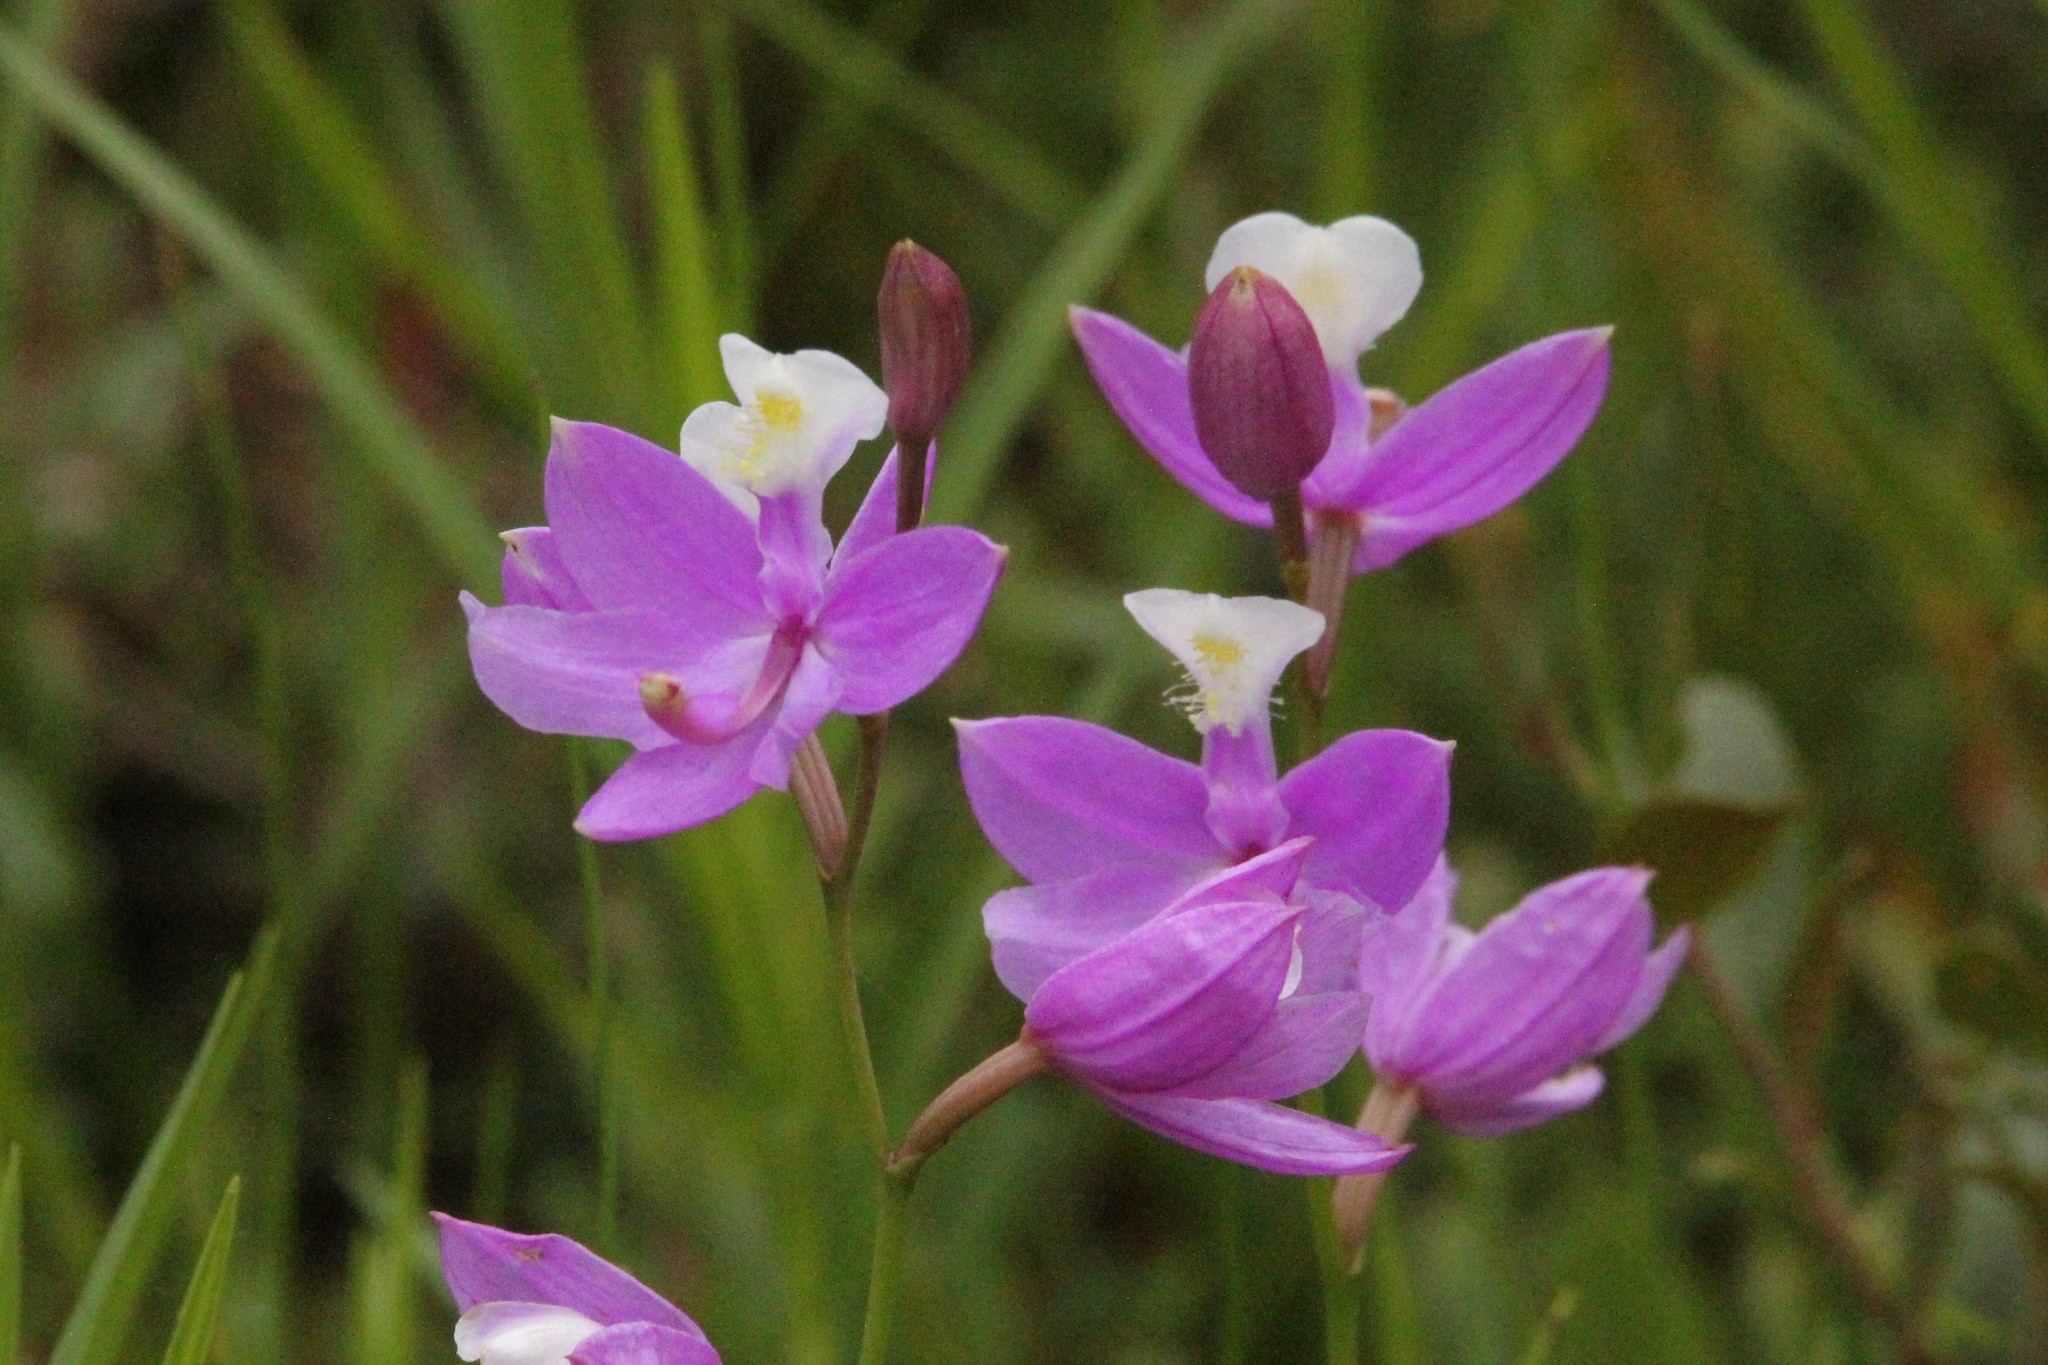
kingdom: Plantae
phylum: Tracheophyta
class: Liliopsida
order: Asparagales
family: Orchidaceae
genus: Calopogon
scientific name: Calopogon tuberosus
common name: Grass-pink
